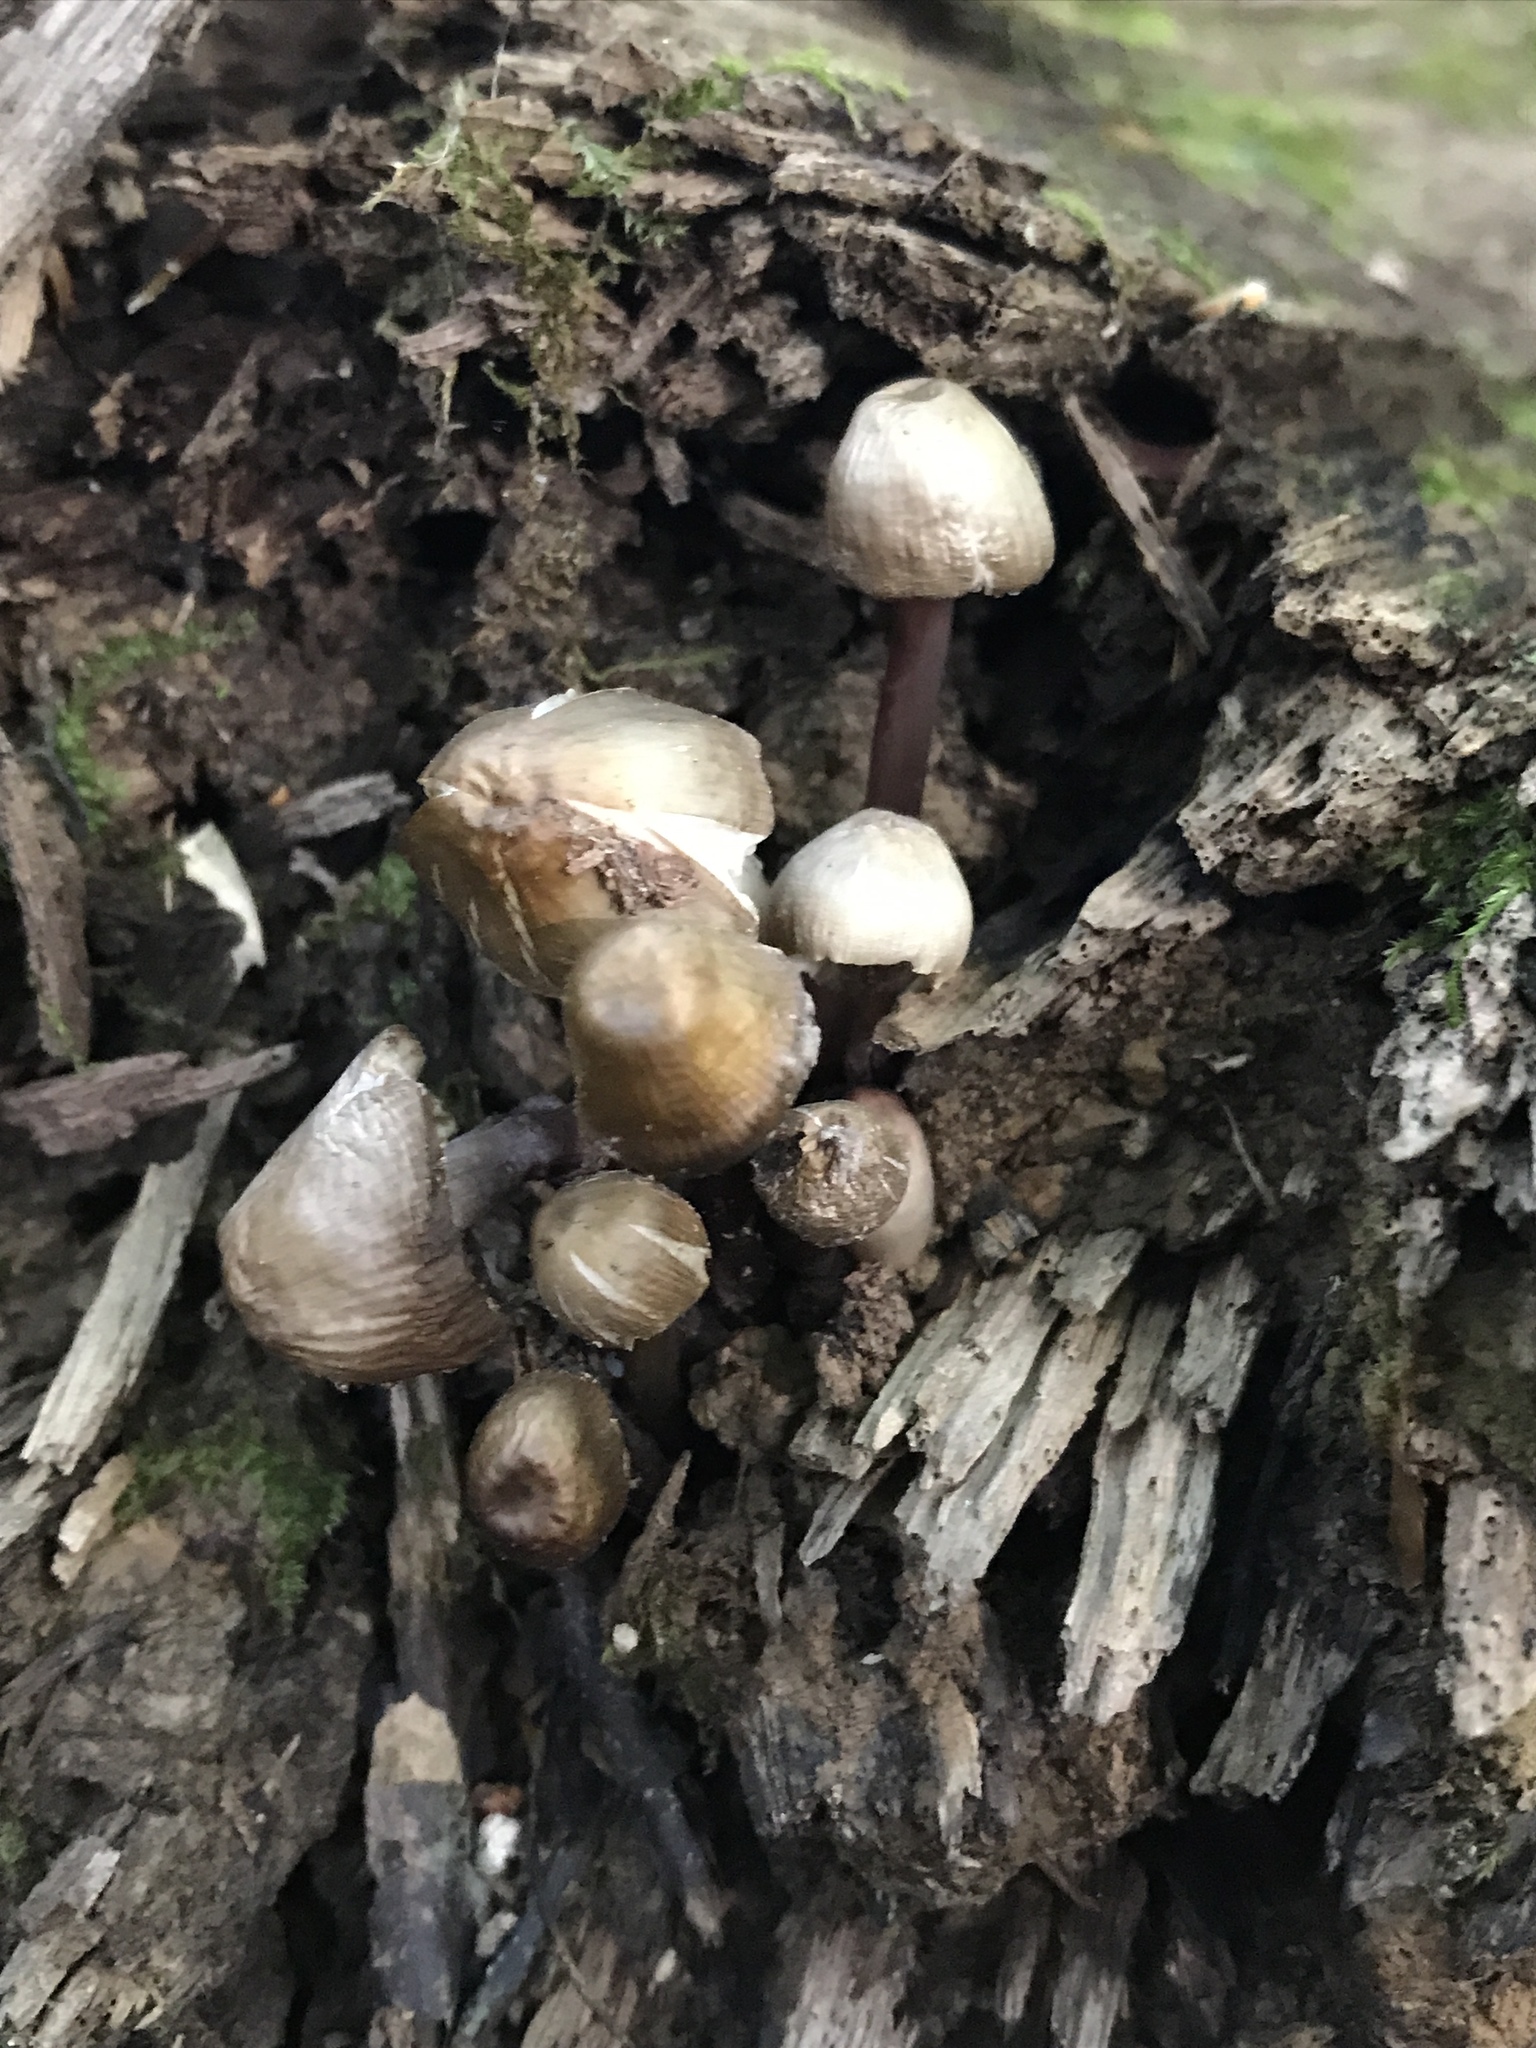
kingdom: Fungi
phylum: Basidiomycota
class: Agaricomycetes
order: Agaricales
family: Mycenaceae
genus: Mycena
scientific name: Mycena inclinata
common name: Clustered bonnet
